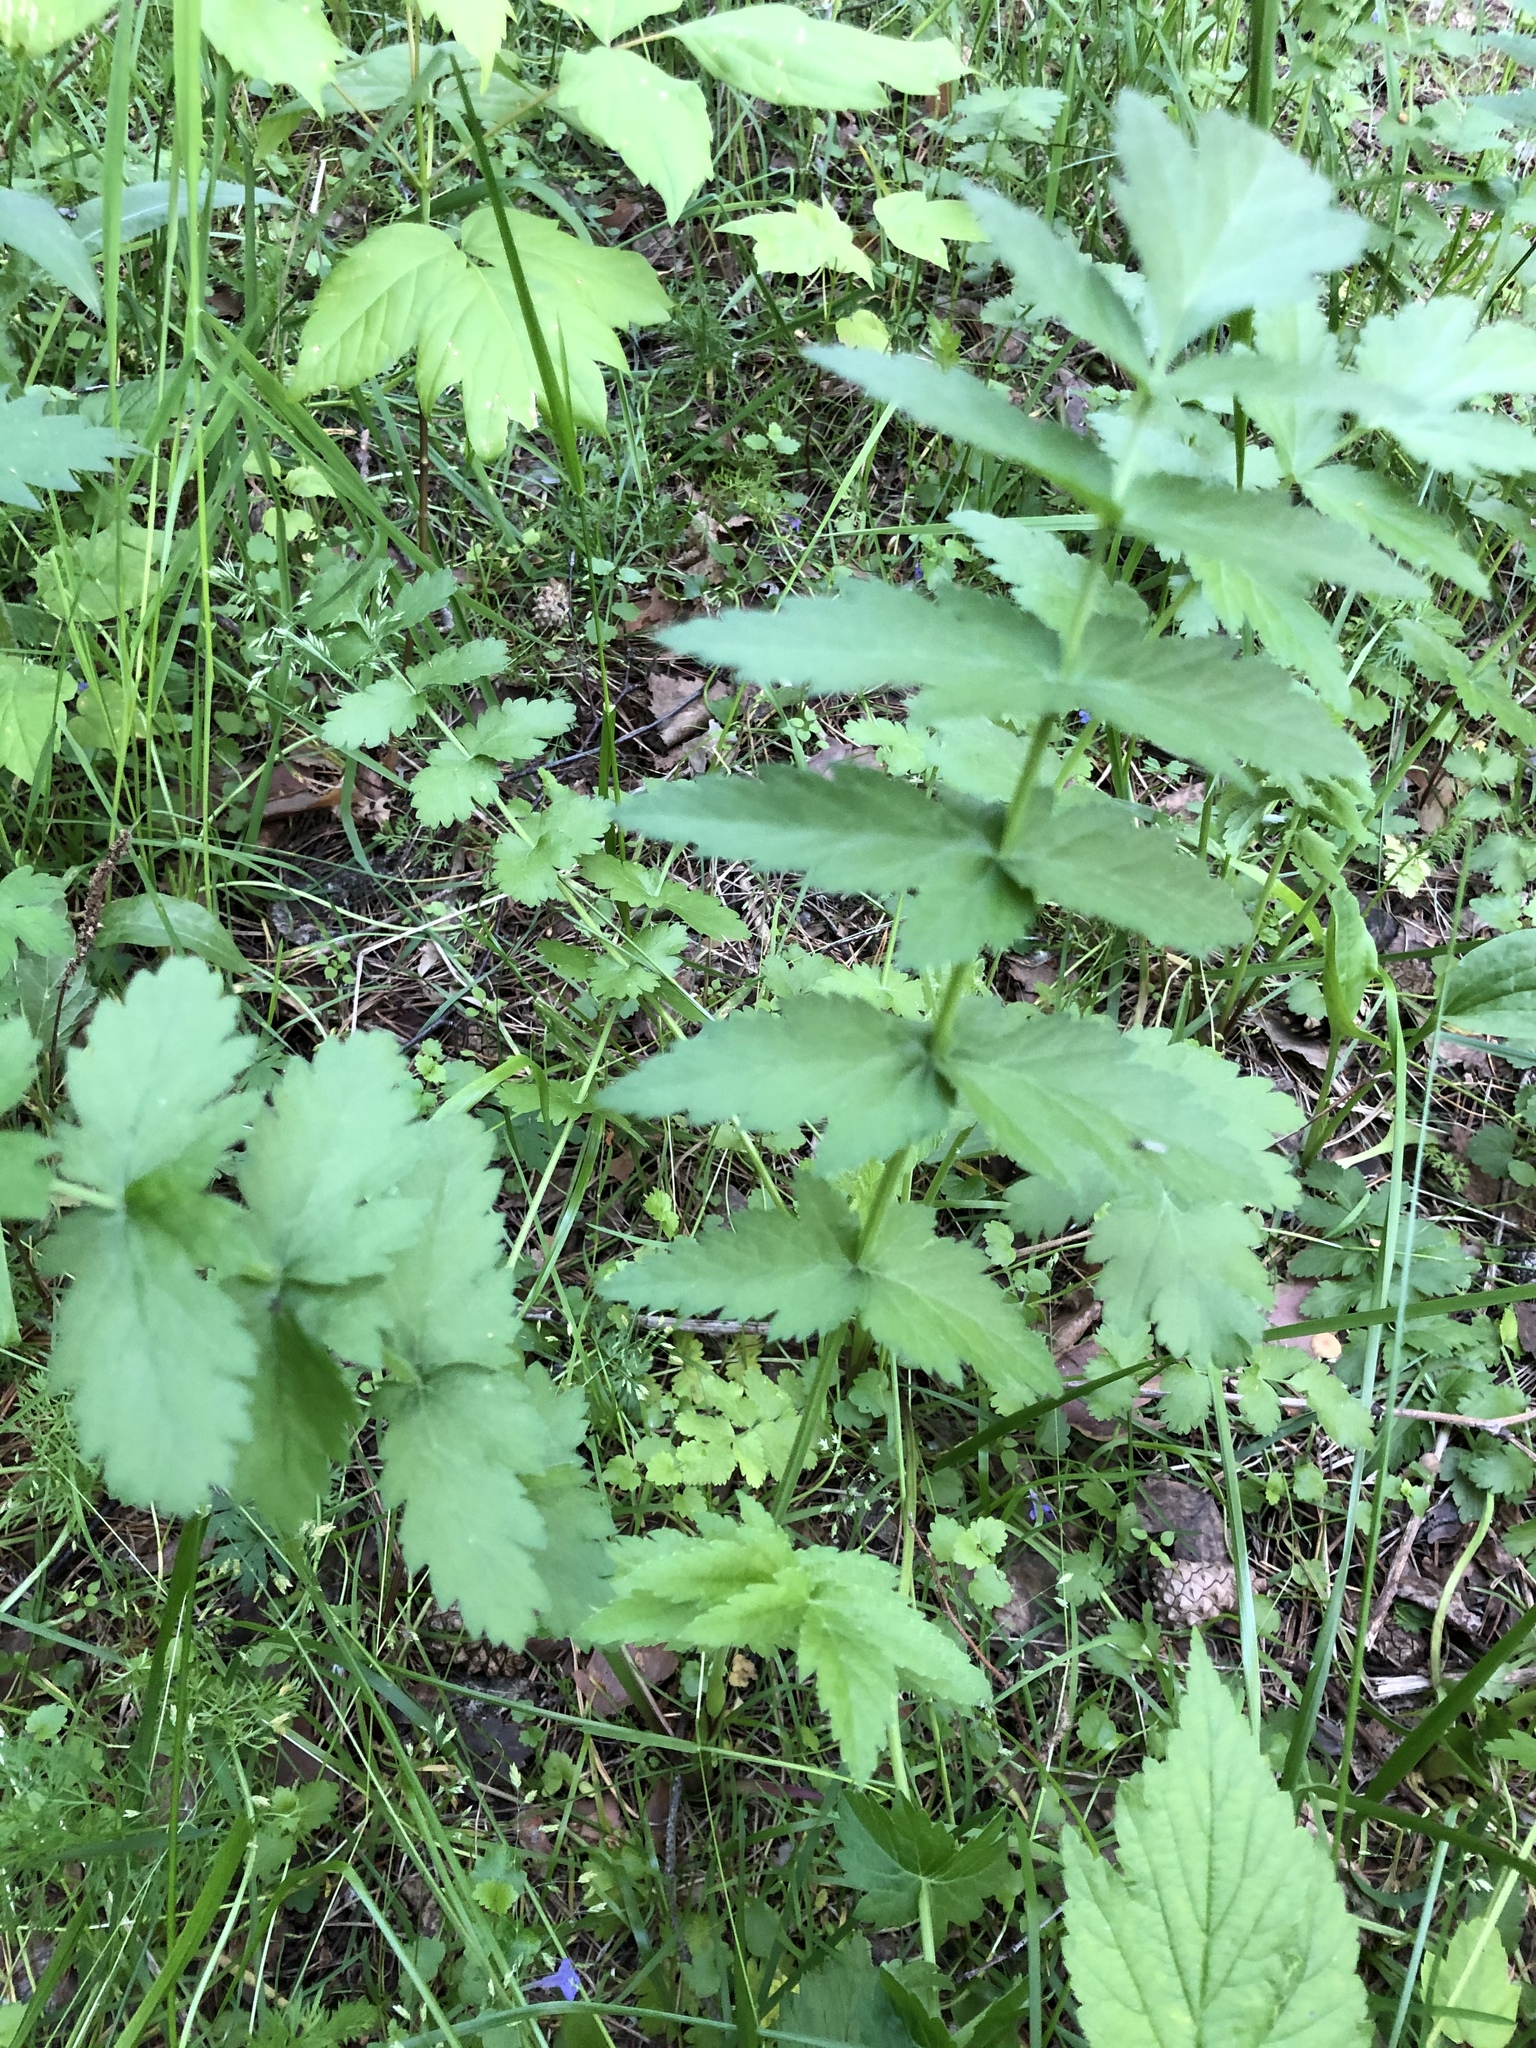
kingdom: Plantae
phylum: Tracheophyta
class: Magnoliopsida
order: Apiales
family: Apiaceae
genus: Pastinaca
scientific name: Pastinaca sativa
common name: Wild parsnip
